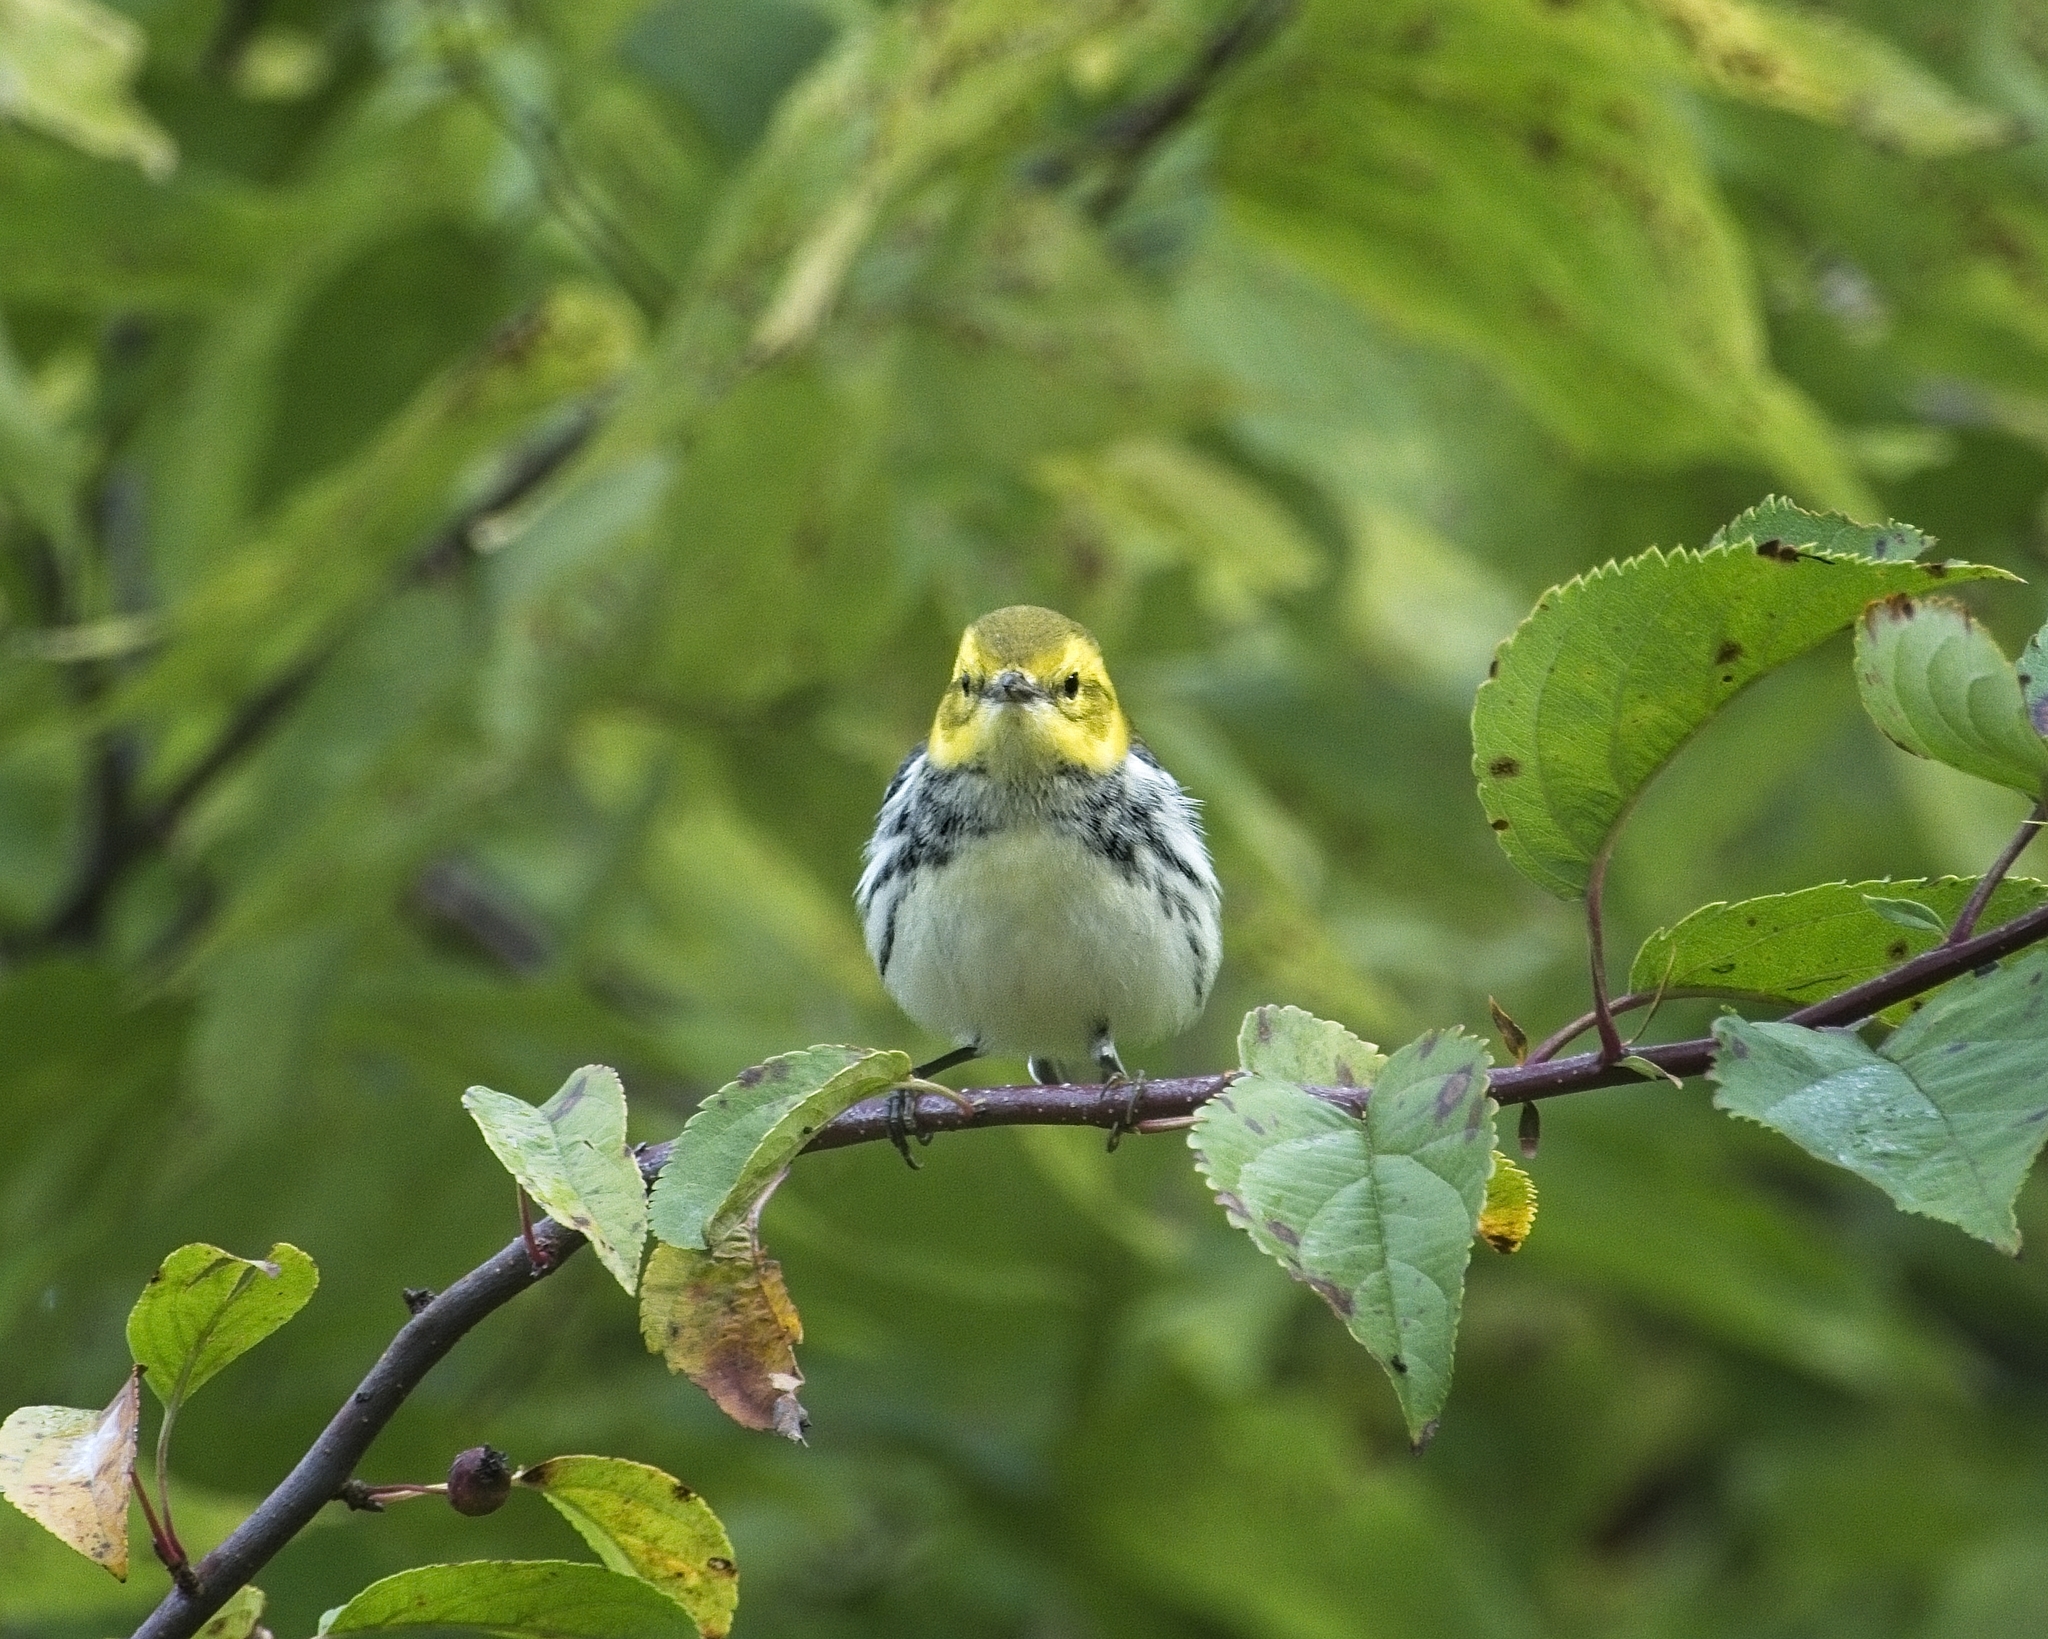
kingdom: Animalia
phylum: Chordata
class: Aves
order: Passeriformes
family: Parulidae
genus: Setophaga
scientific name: Setophaga virens
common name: Black-throated green warbler
